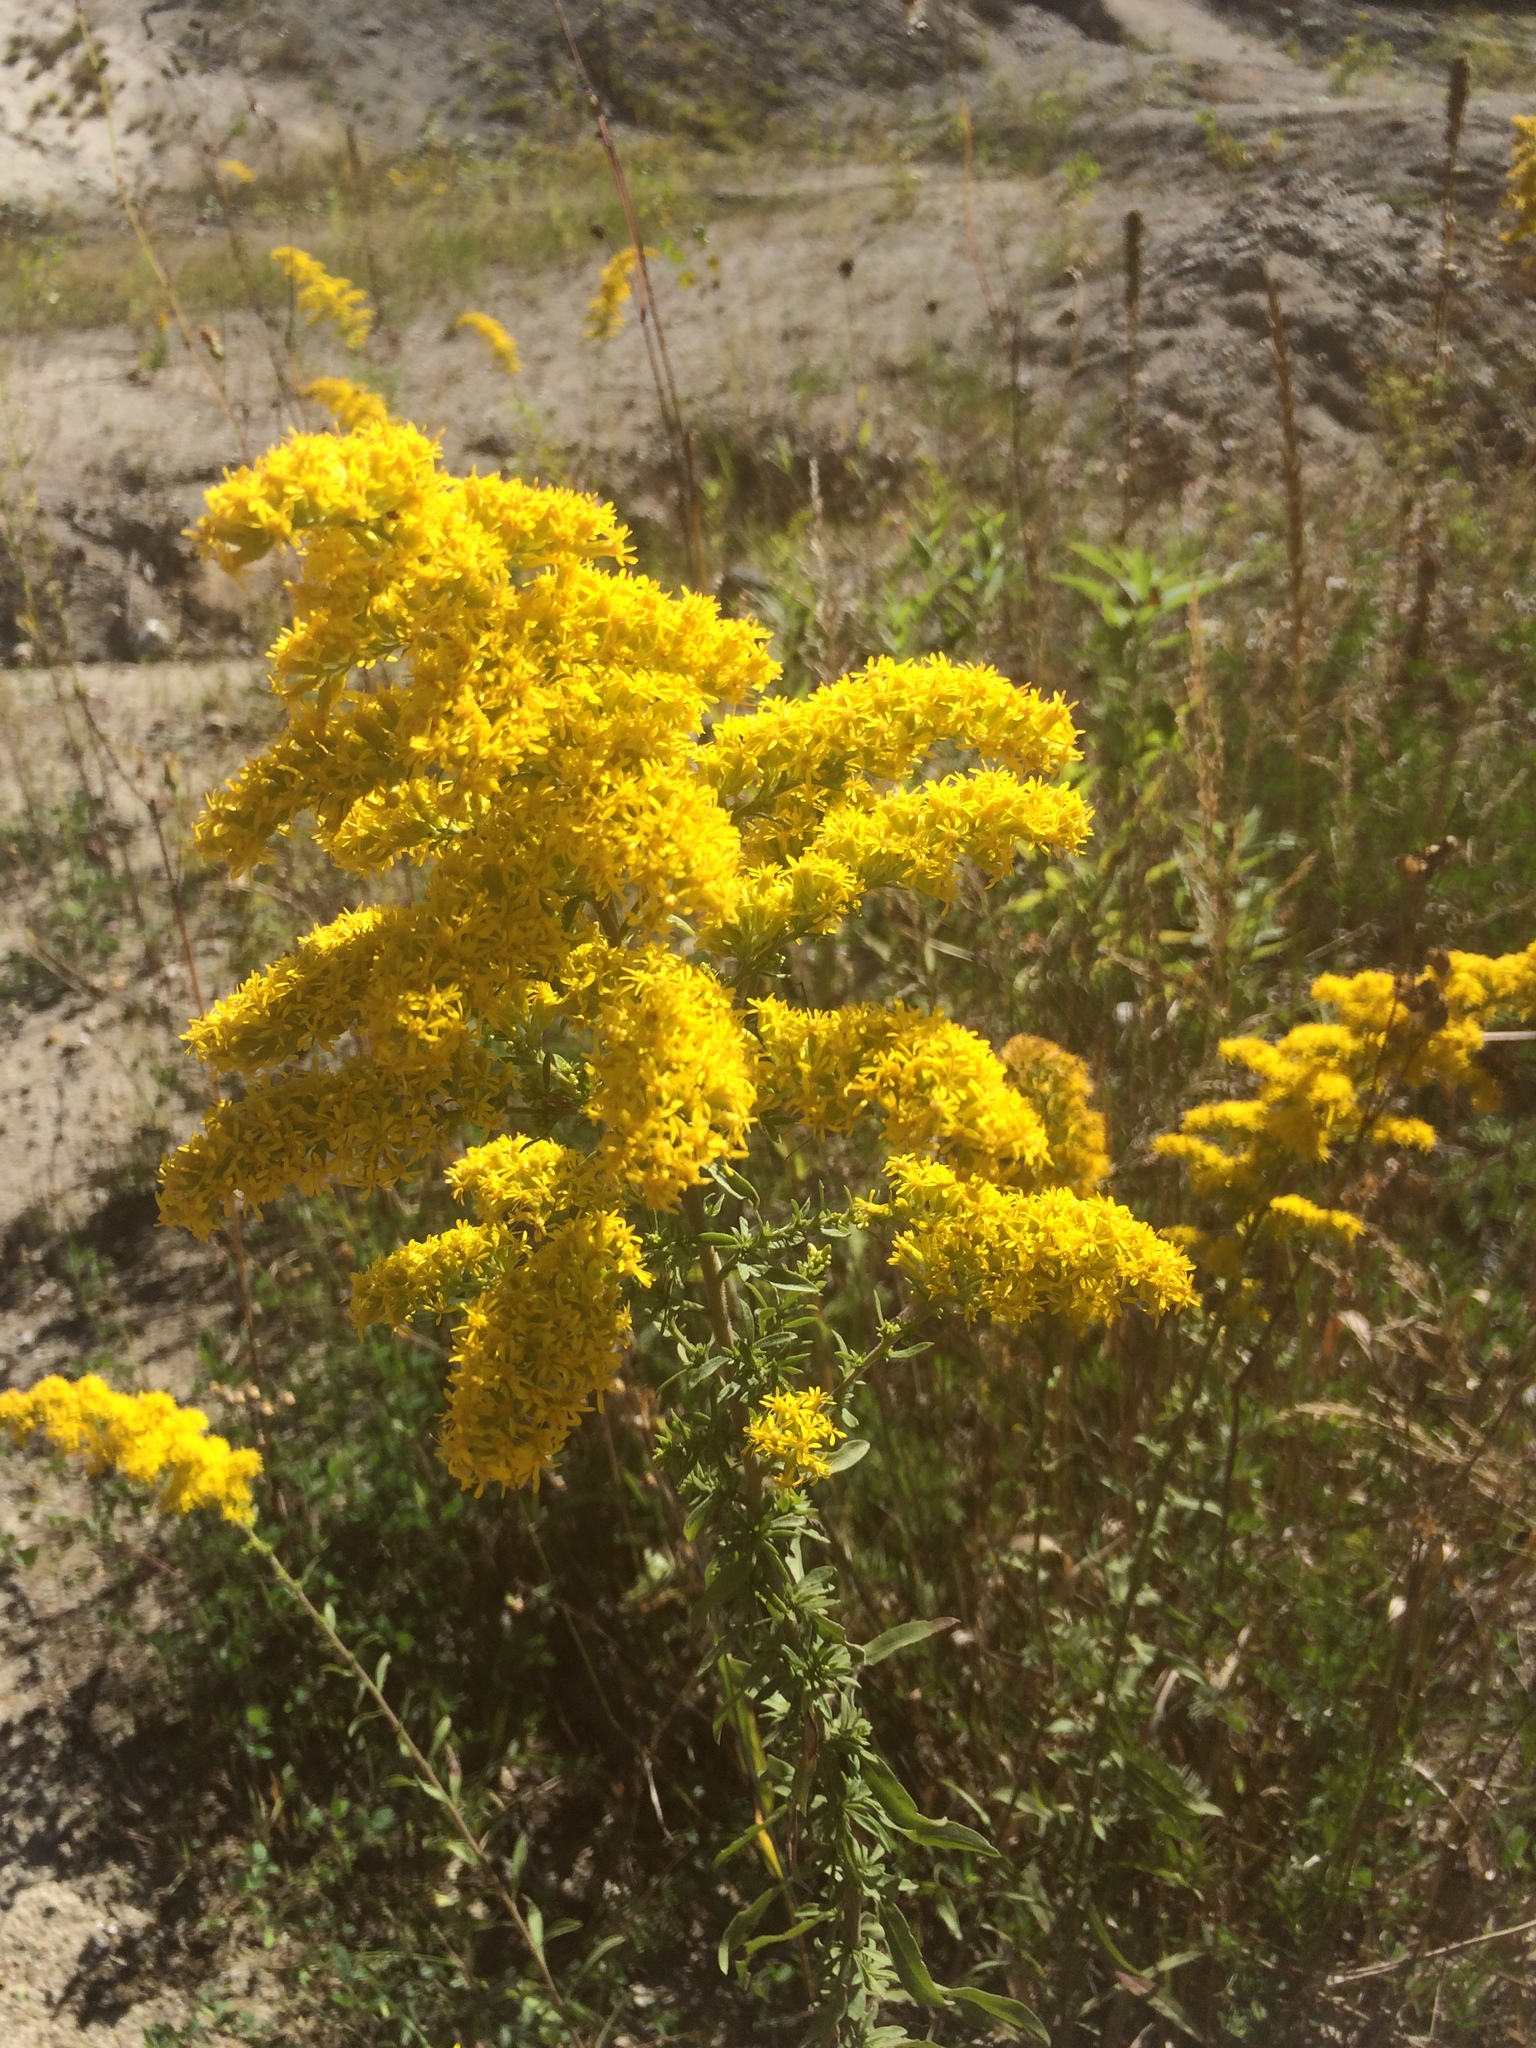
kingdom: Plantae
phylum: Tracheophyta
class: Magnoliopsida
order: Asterales
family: Asteraceae
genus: Solidago
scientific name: Solidago nemoralis
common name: Grey goldenrod
